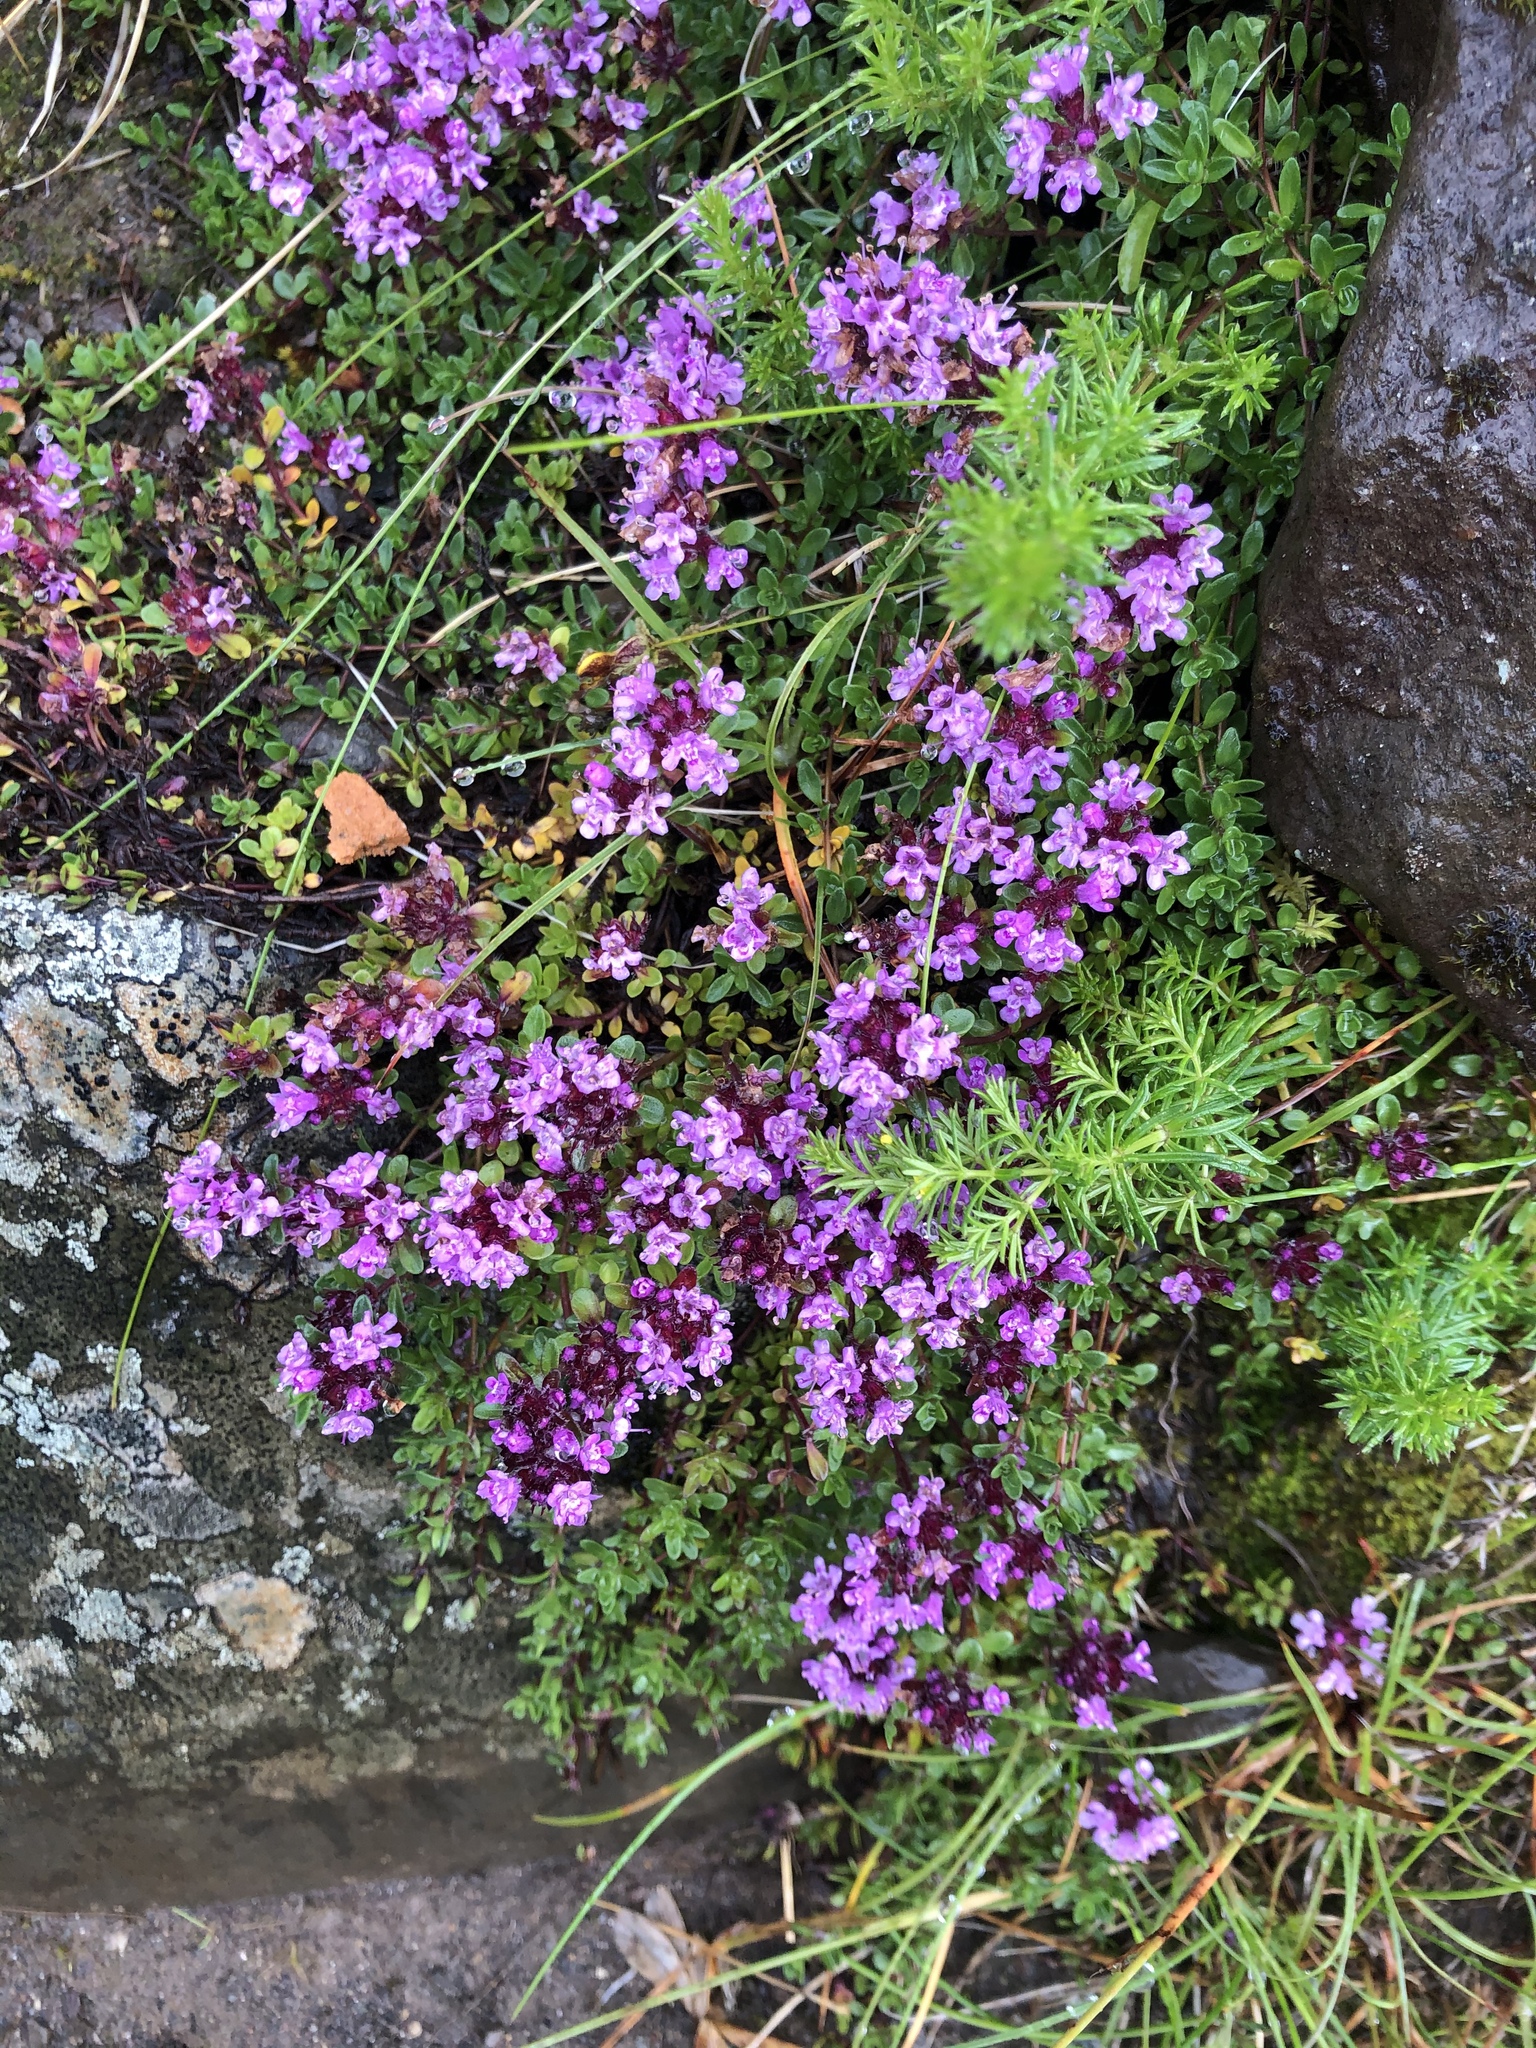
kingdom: Plantae
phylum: Tracheophyta
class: Magnoliopsida
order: Lamiales
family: Lamiaceae
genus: Thymus
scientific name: Thymus praecox
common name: Wild thyme
